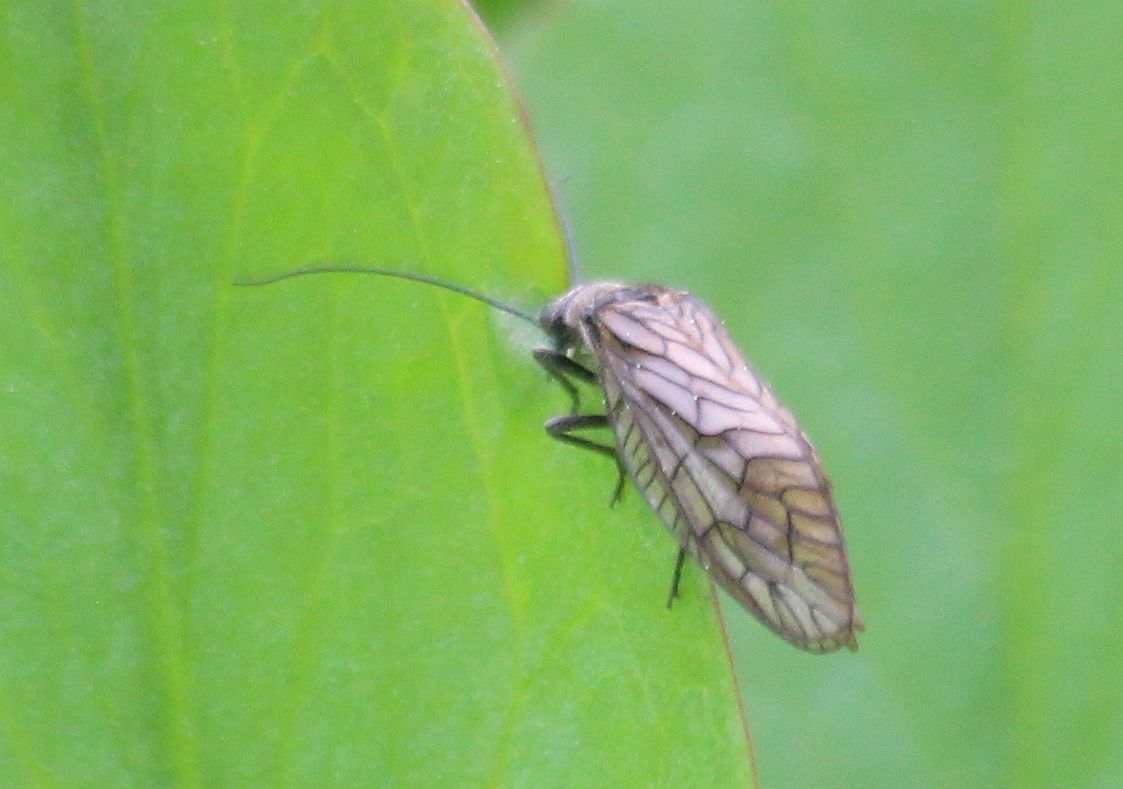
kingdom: Animalia
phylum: Arthropoda
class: Insecta
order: Megaloptera
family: Sialidae
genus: Sialis
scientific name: Sialis
